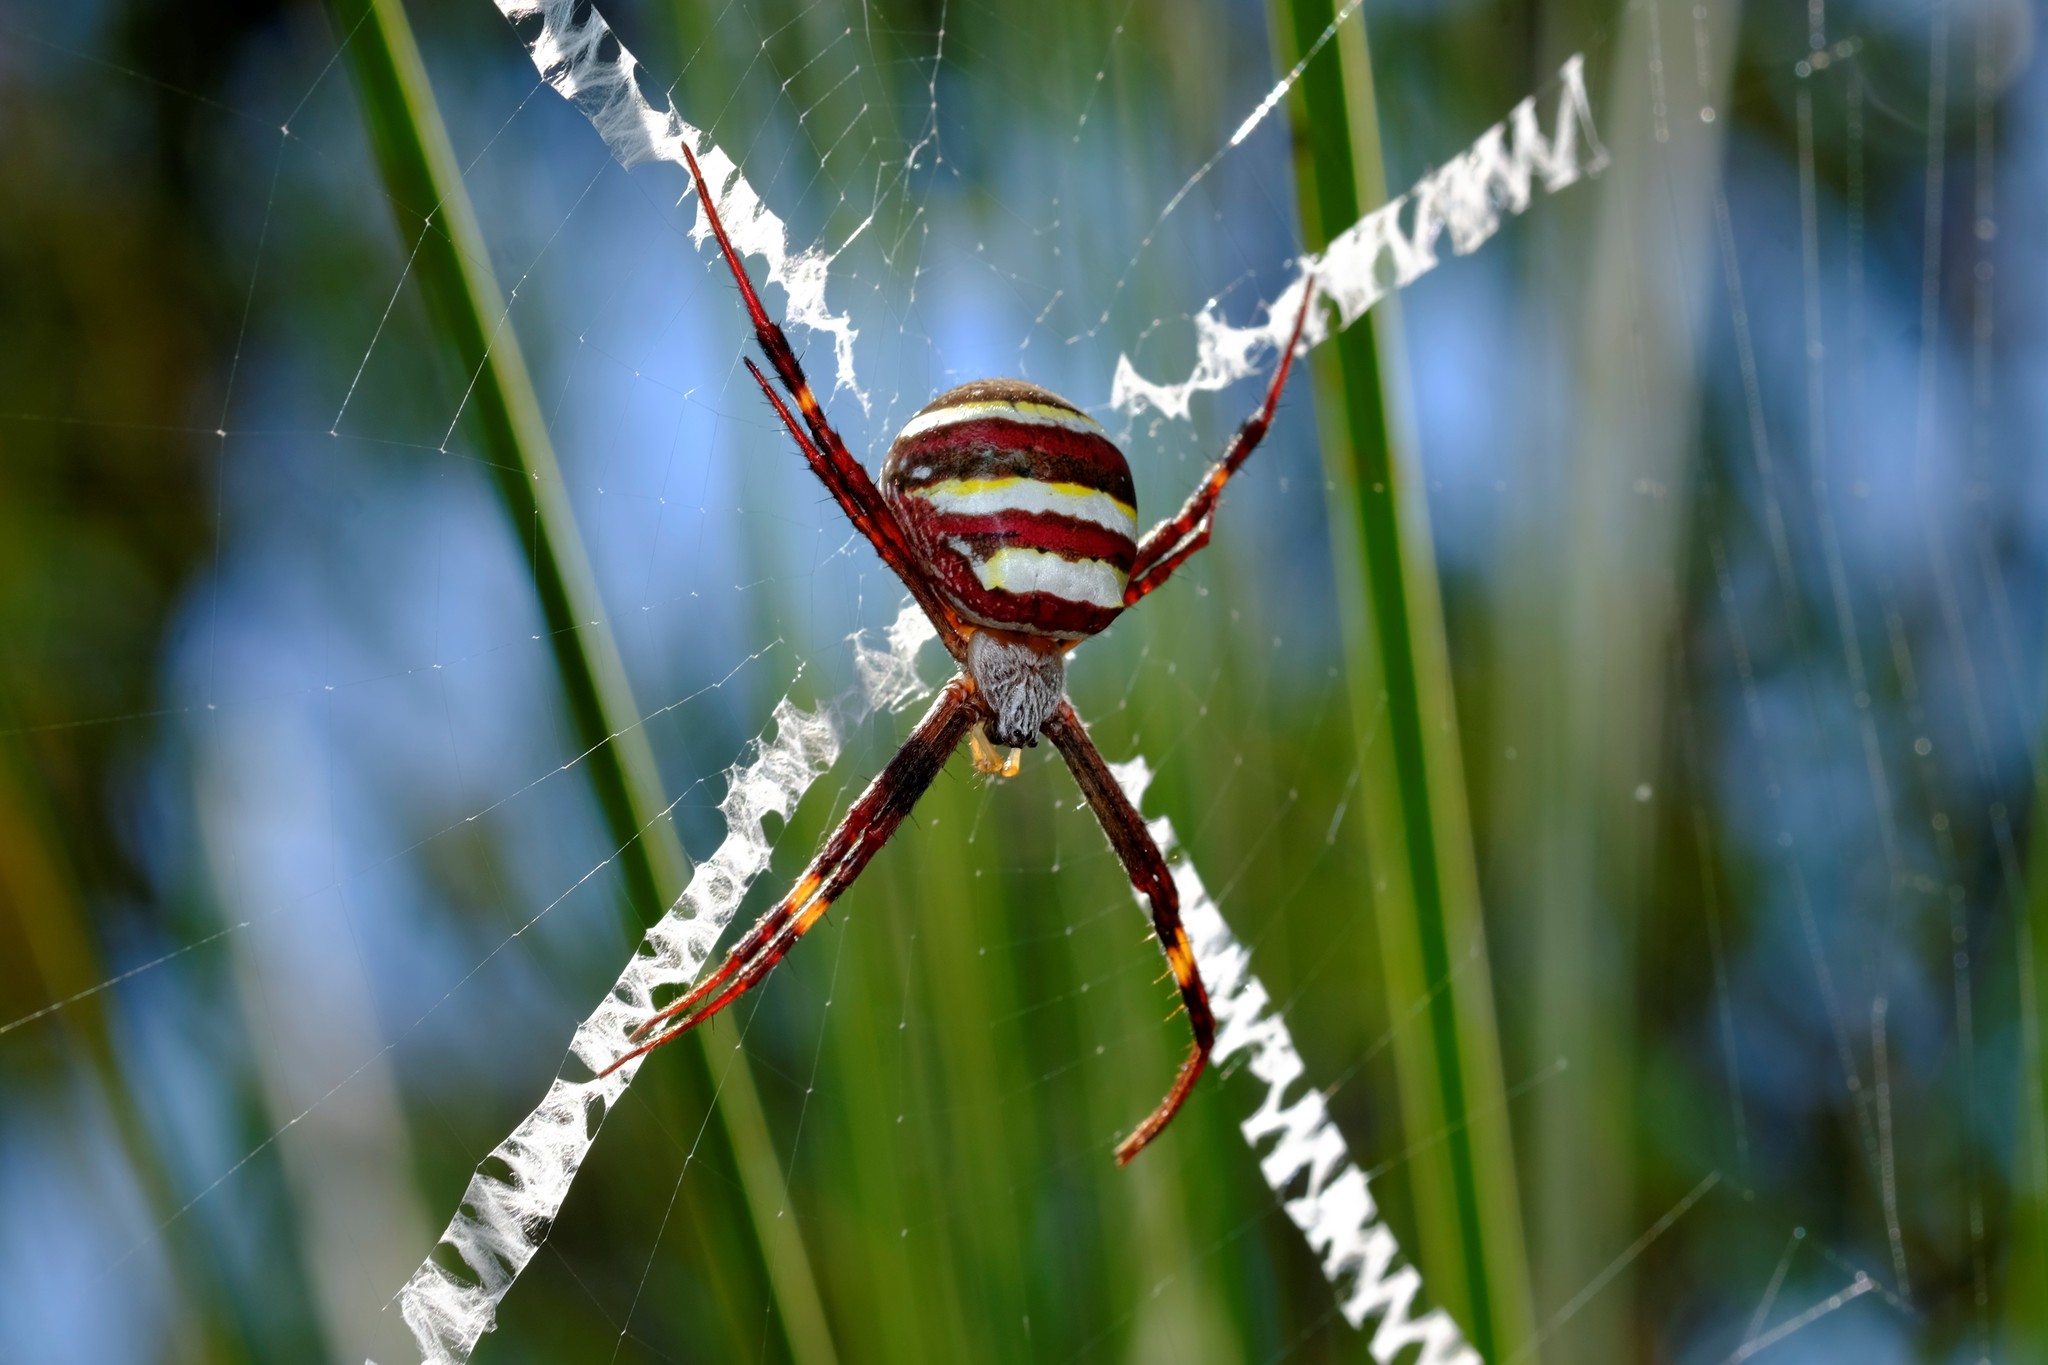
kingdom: Animalia
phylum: Arthropoda
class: Arachnida
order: Araneae
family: Araneidae
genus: Argiope
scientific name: Argiope keyserlingi
